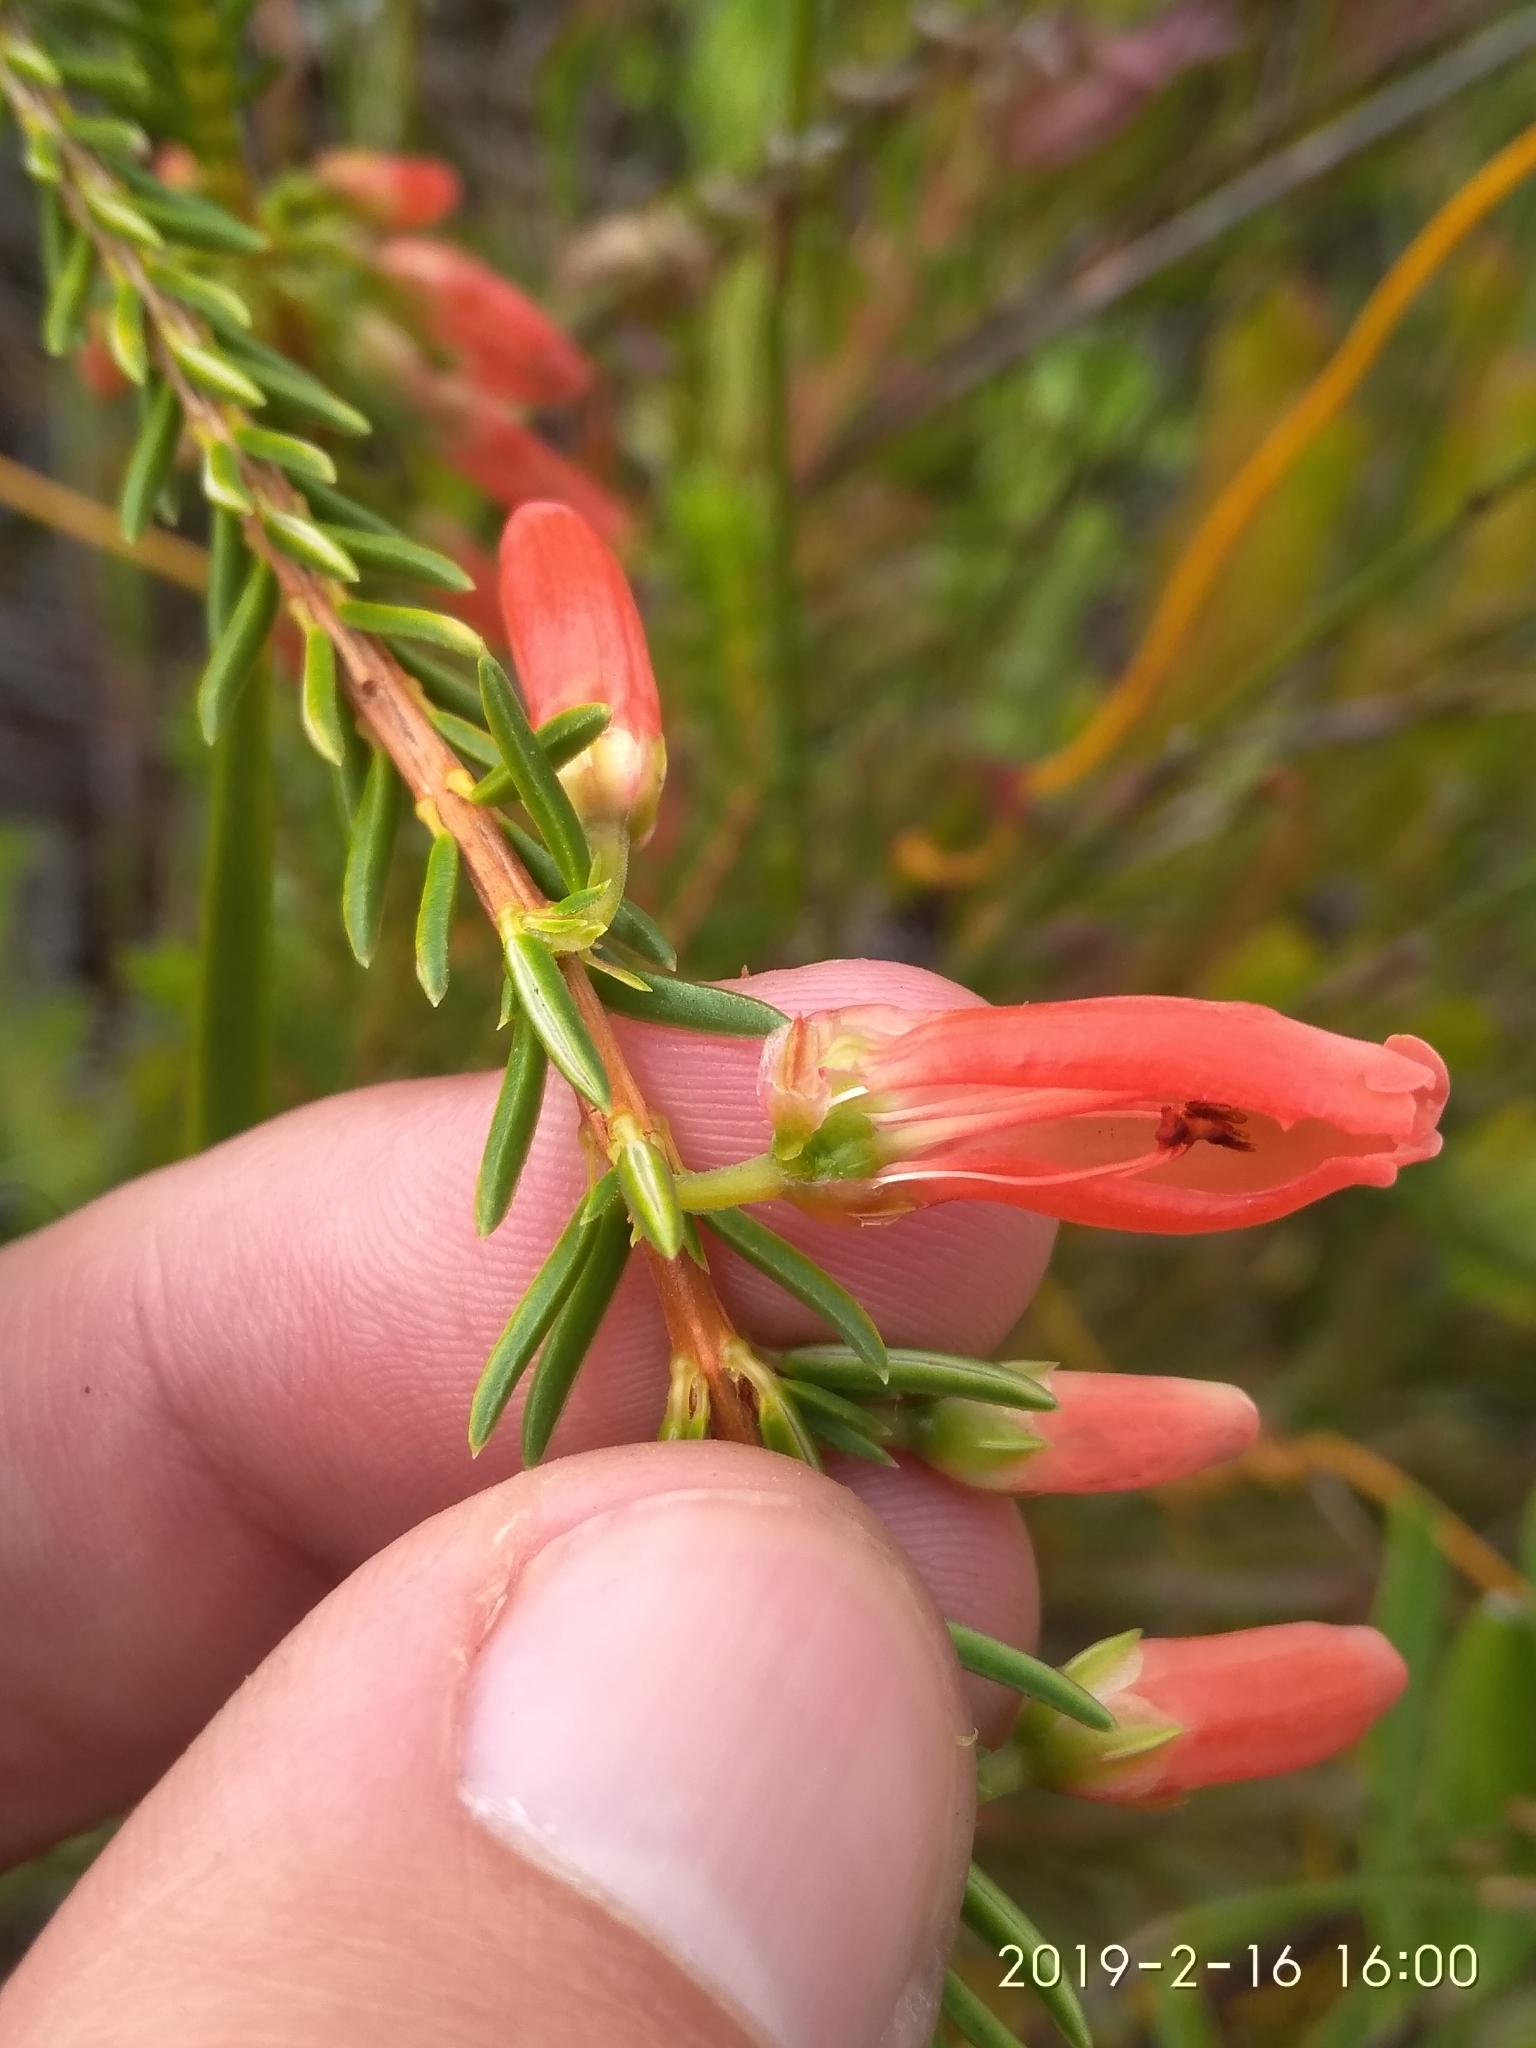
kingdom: Plantae
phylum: Tracheophyta
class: Magnoliopsida
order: Ericales
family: Ericaceae
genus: Erica
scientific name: Erica mammosa
